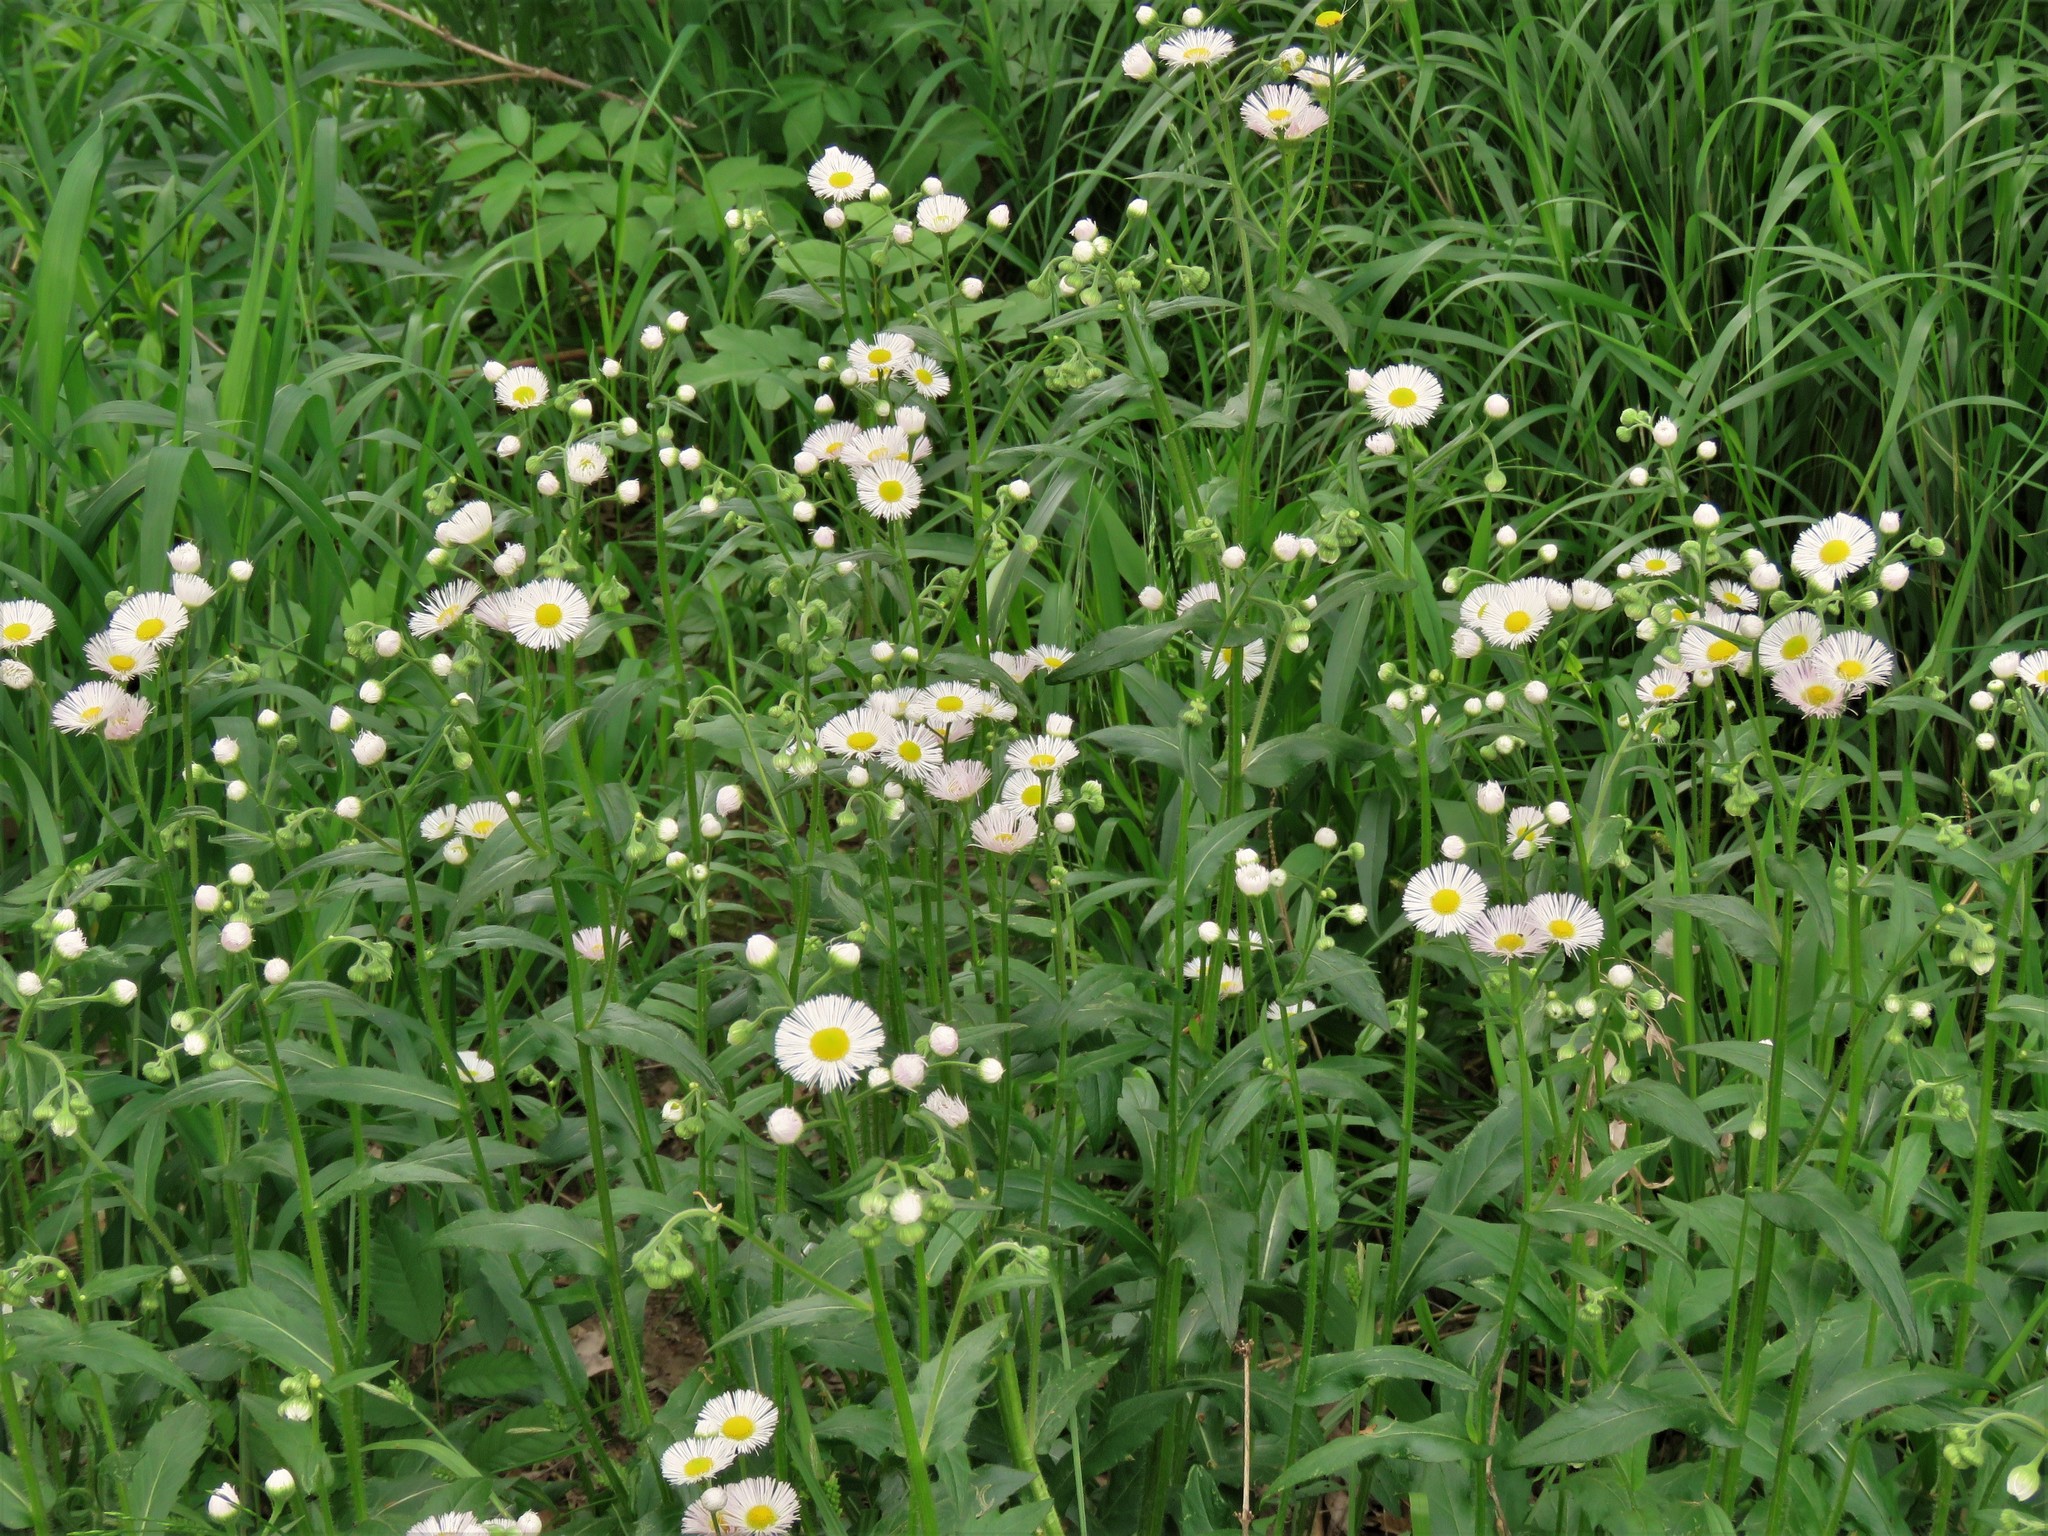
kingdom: Plantae
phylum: Tracheophyta
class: Magnoliopsida
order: Asterales
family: Asteraceae
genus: Erigeron
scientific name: Erigeron philadelphicus
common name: Robin's-plantain
